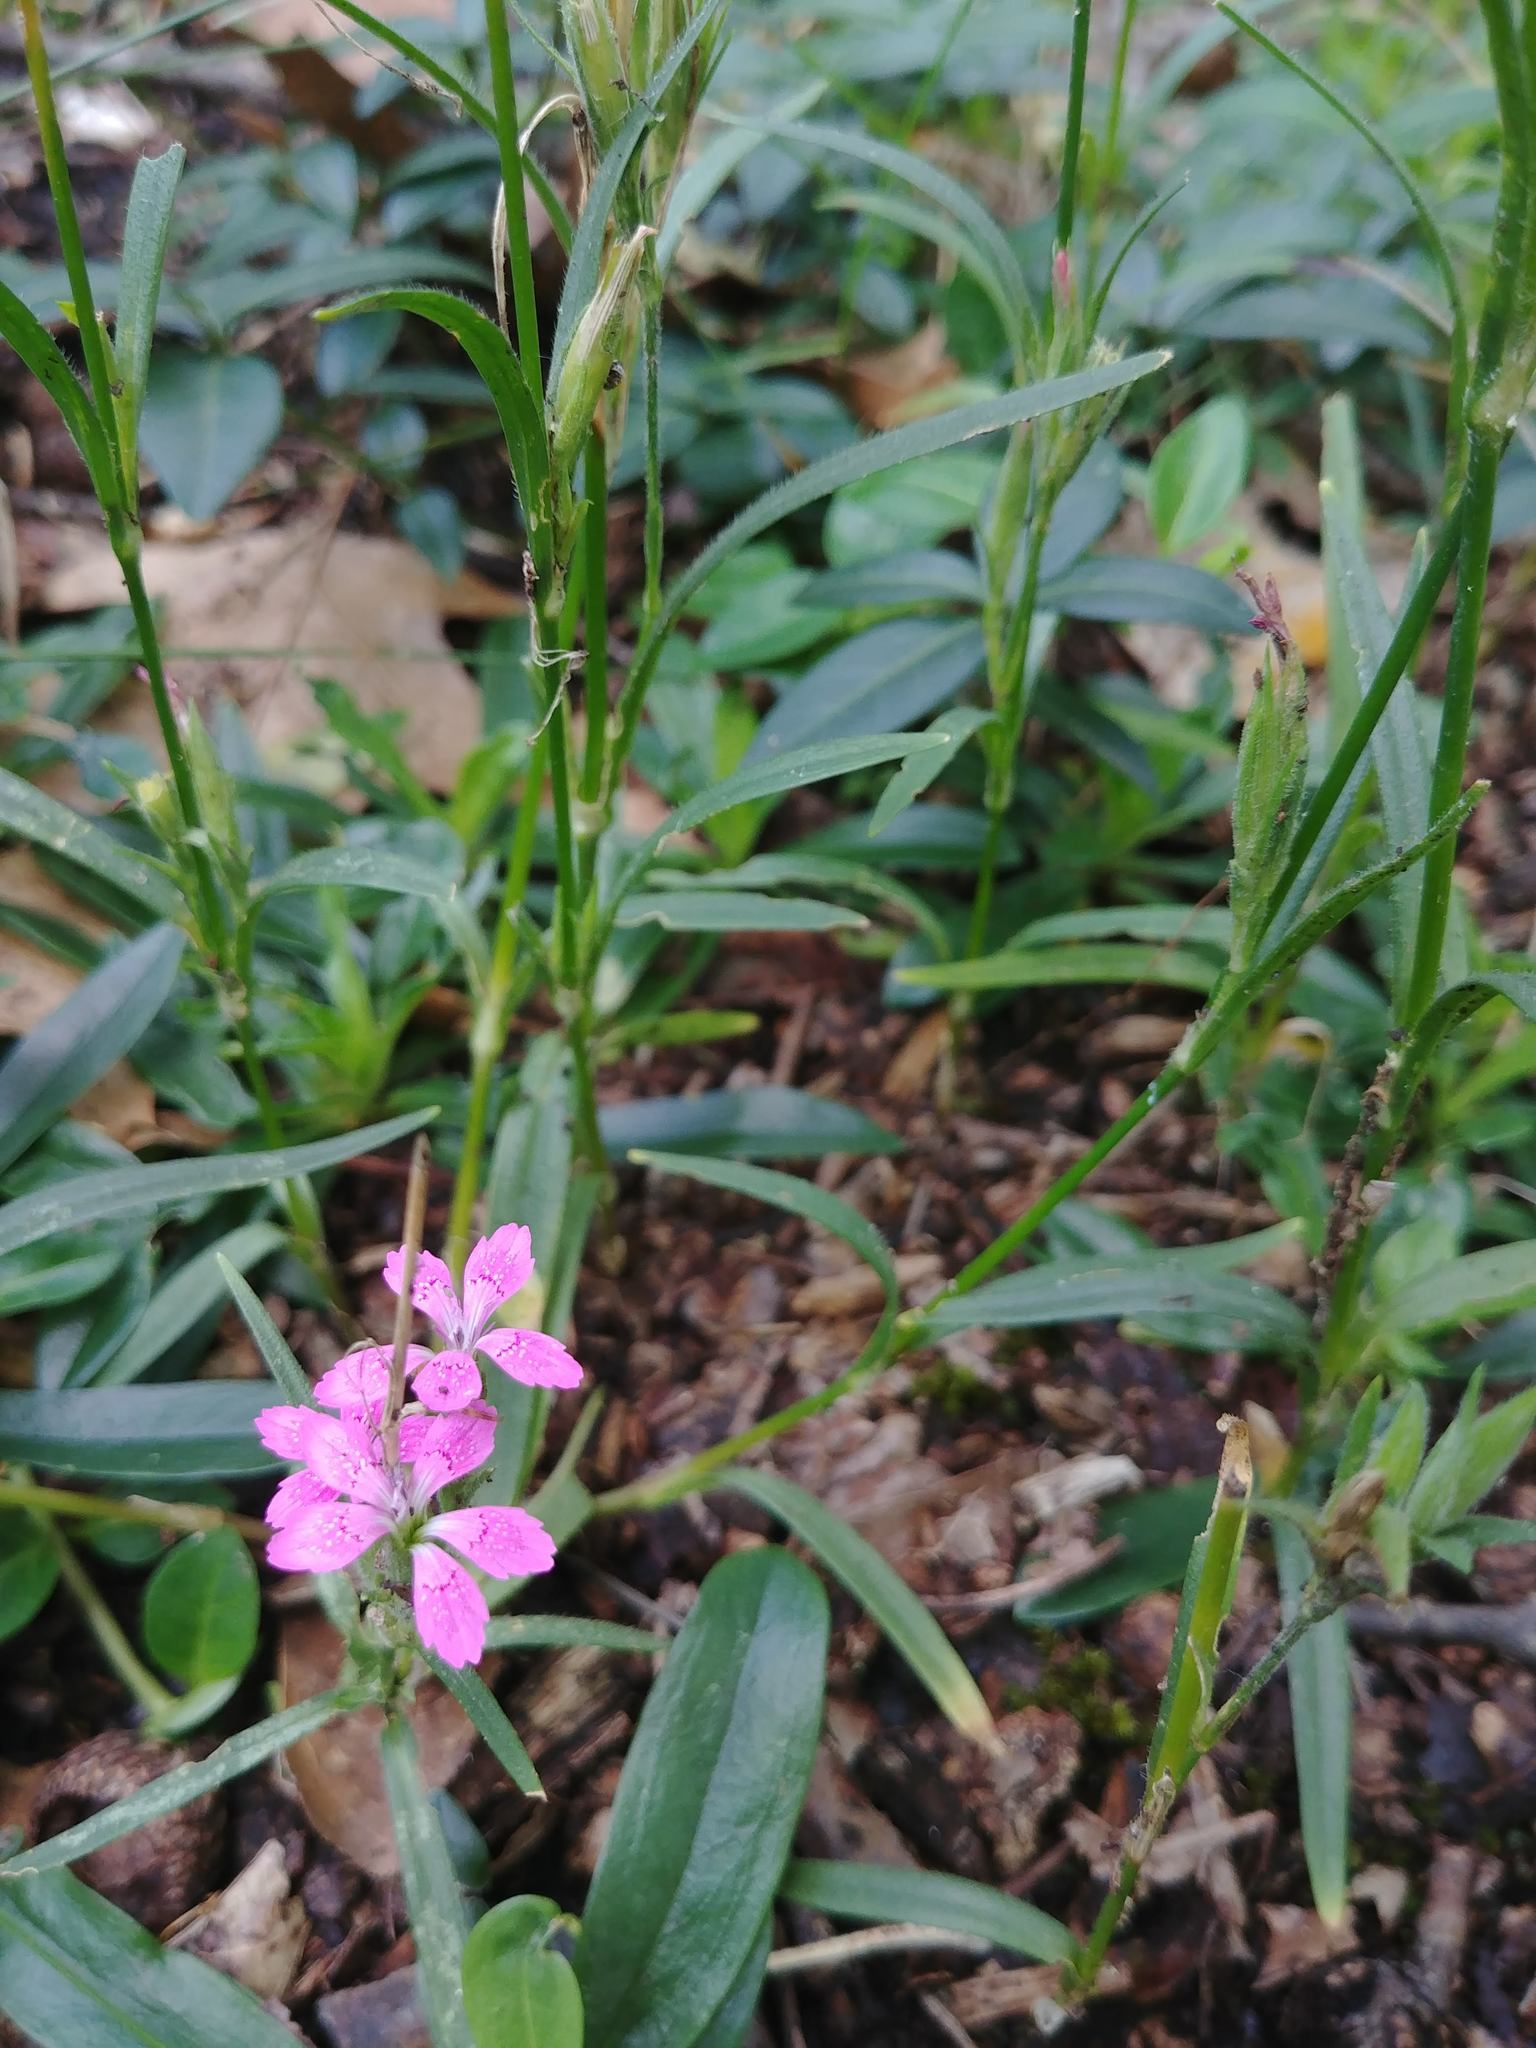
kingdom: Plantae
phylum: Tracheophyta
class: Magnoliopsida
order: Caryophyllales
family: Caryophyllaceae
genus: Dianthus
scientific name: Dianthus armeria
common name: Deptford pink
